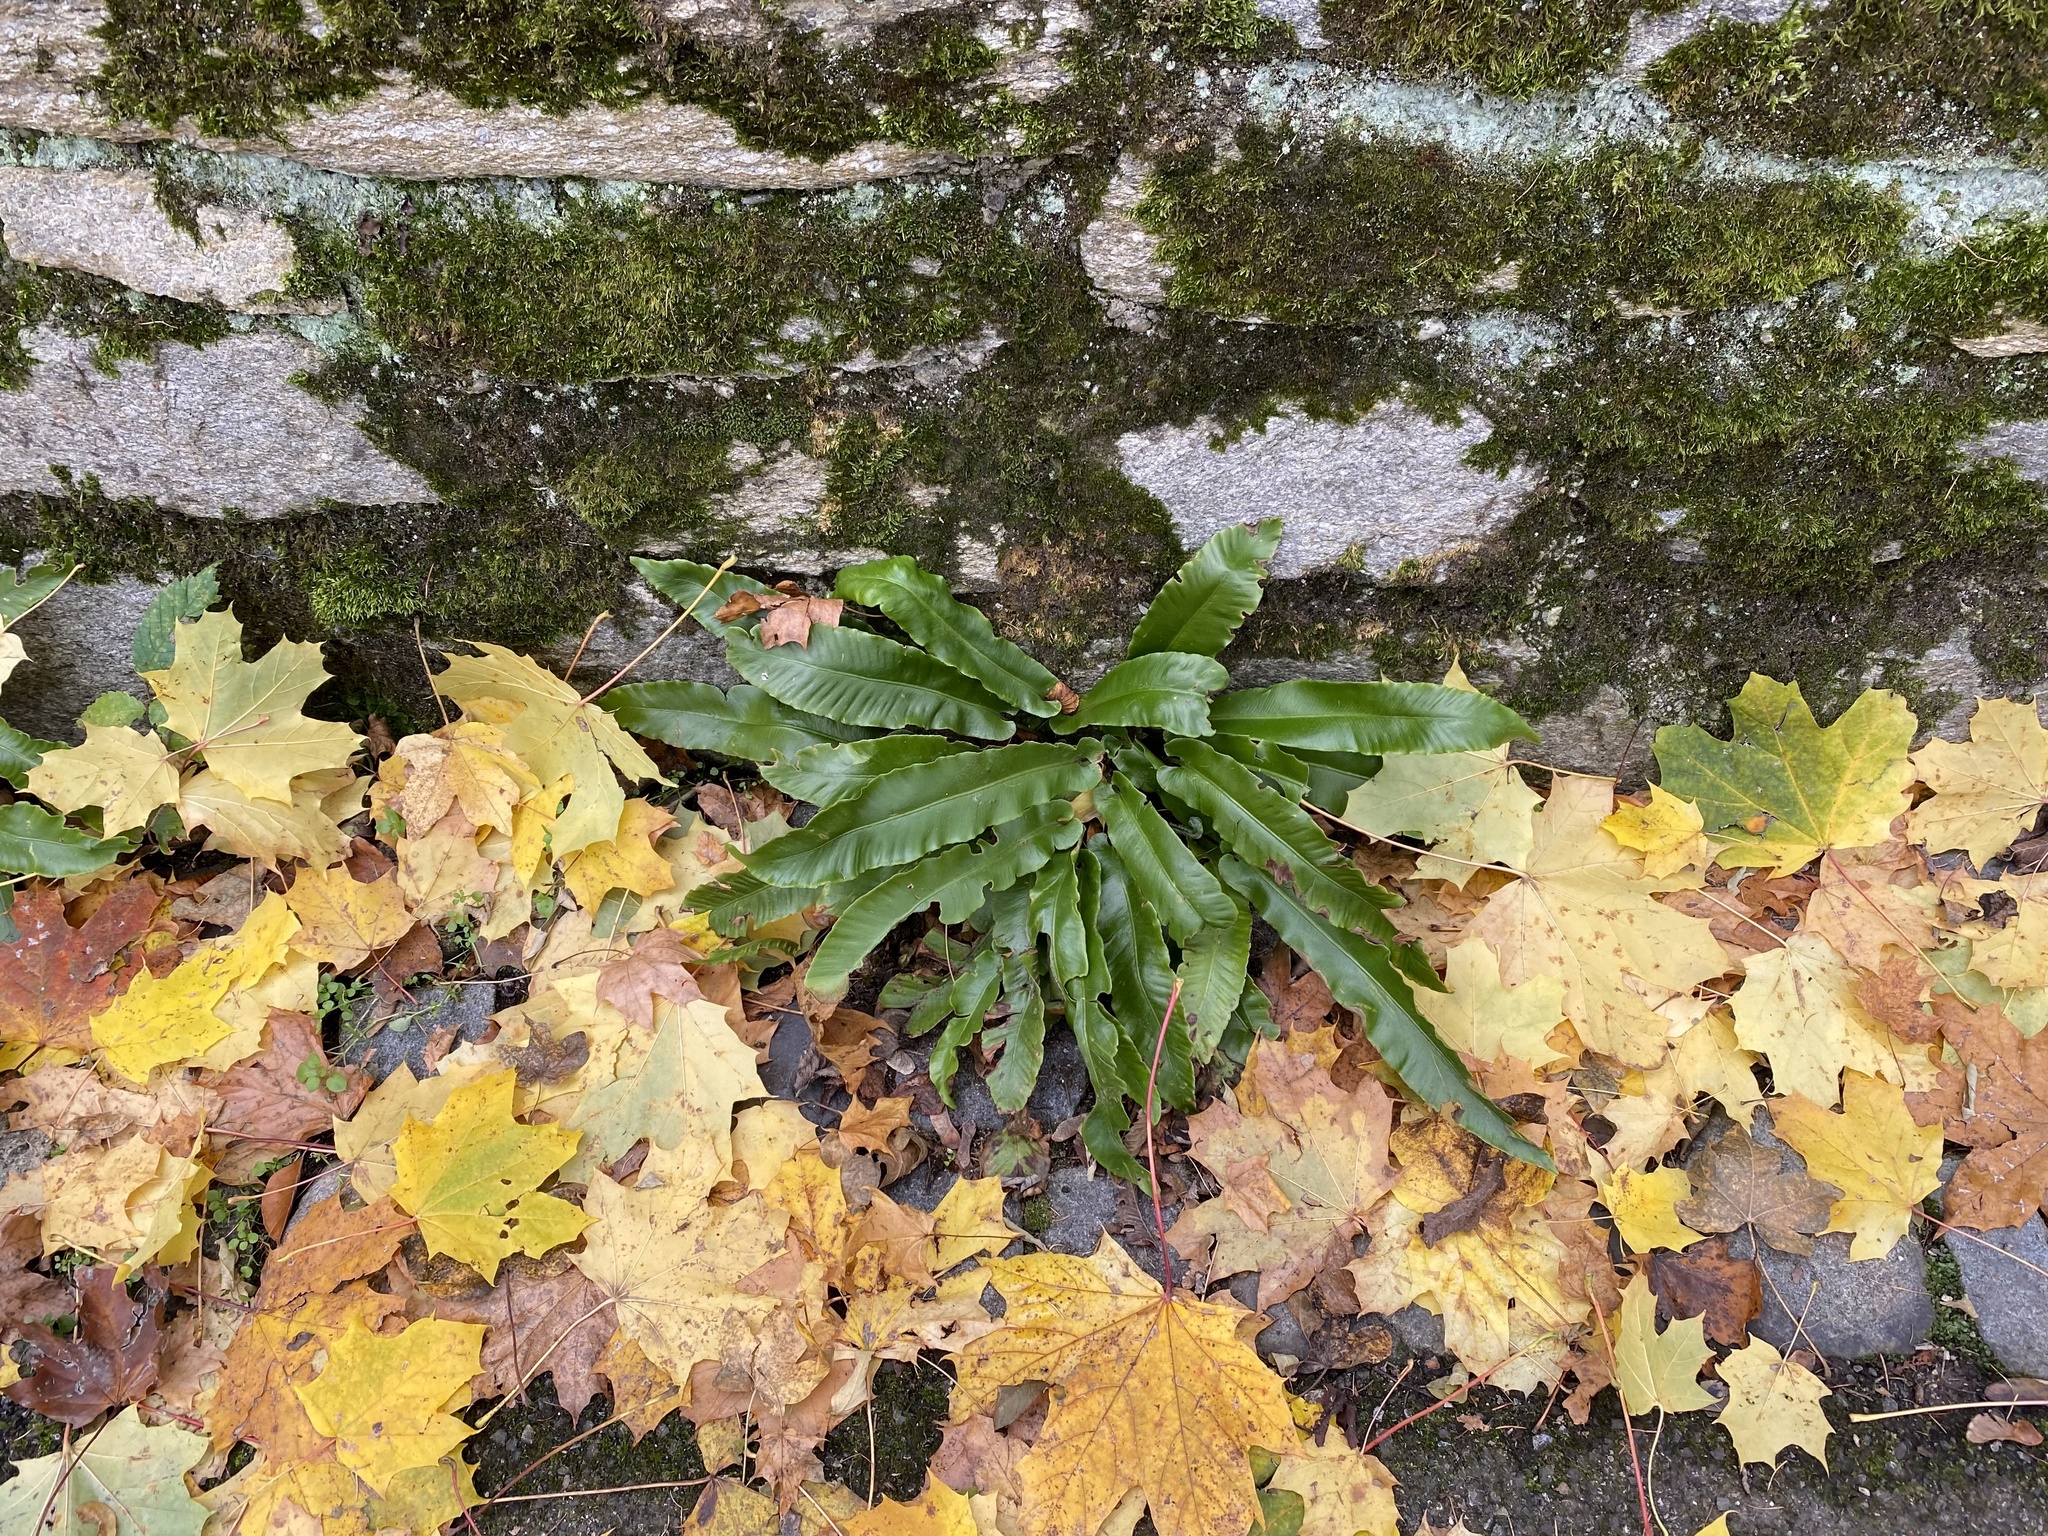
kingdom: Plantae
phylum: Tracheophyta
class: Polypodiopsida
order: Polypodiales
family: Aspleniaceae
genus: Asplenium
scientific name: Asplenium scolopendrium
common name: Hart's-tongue fern
